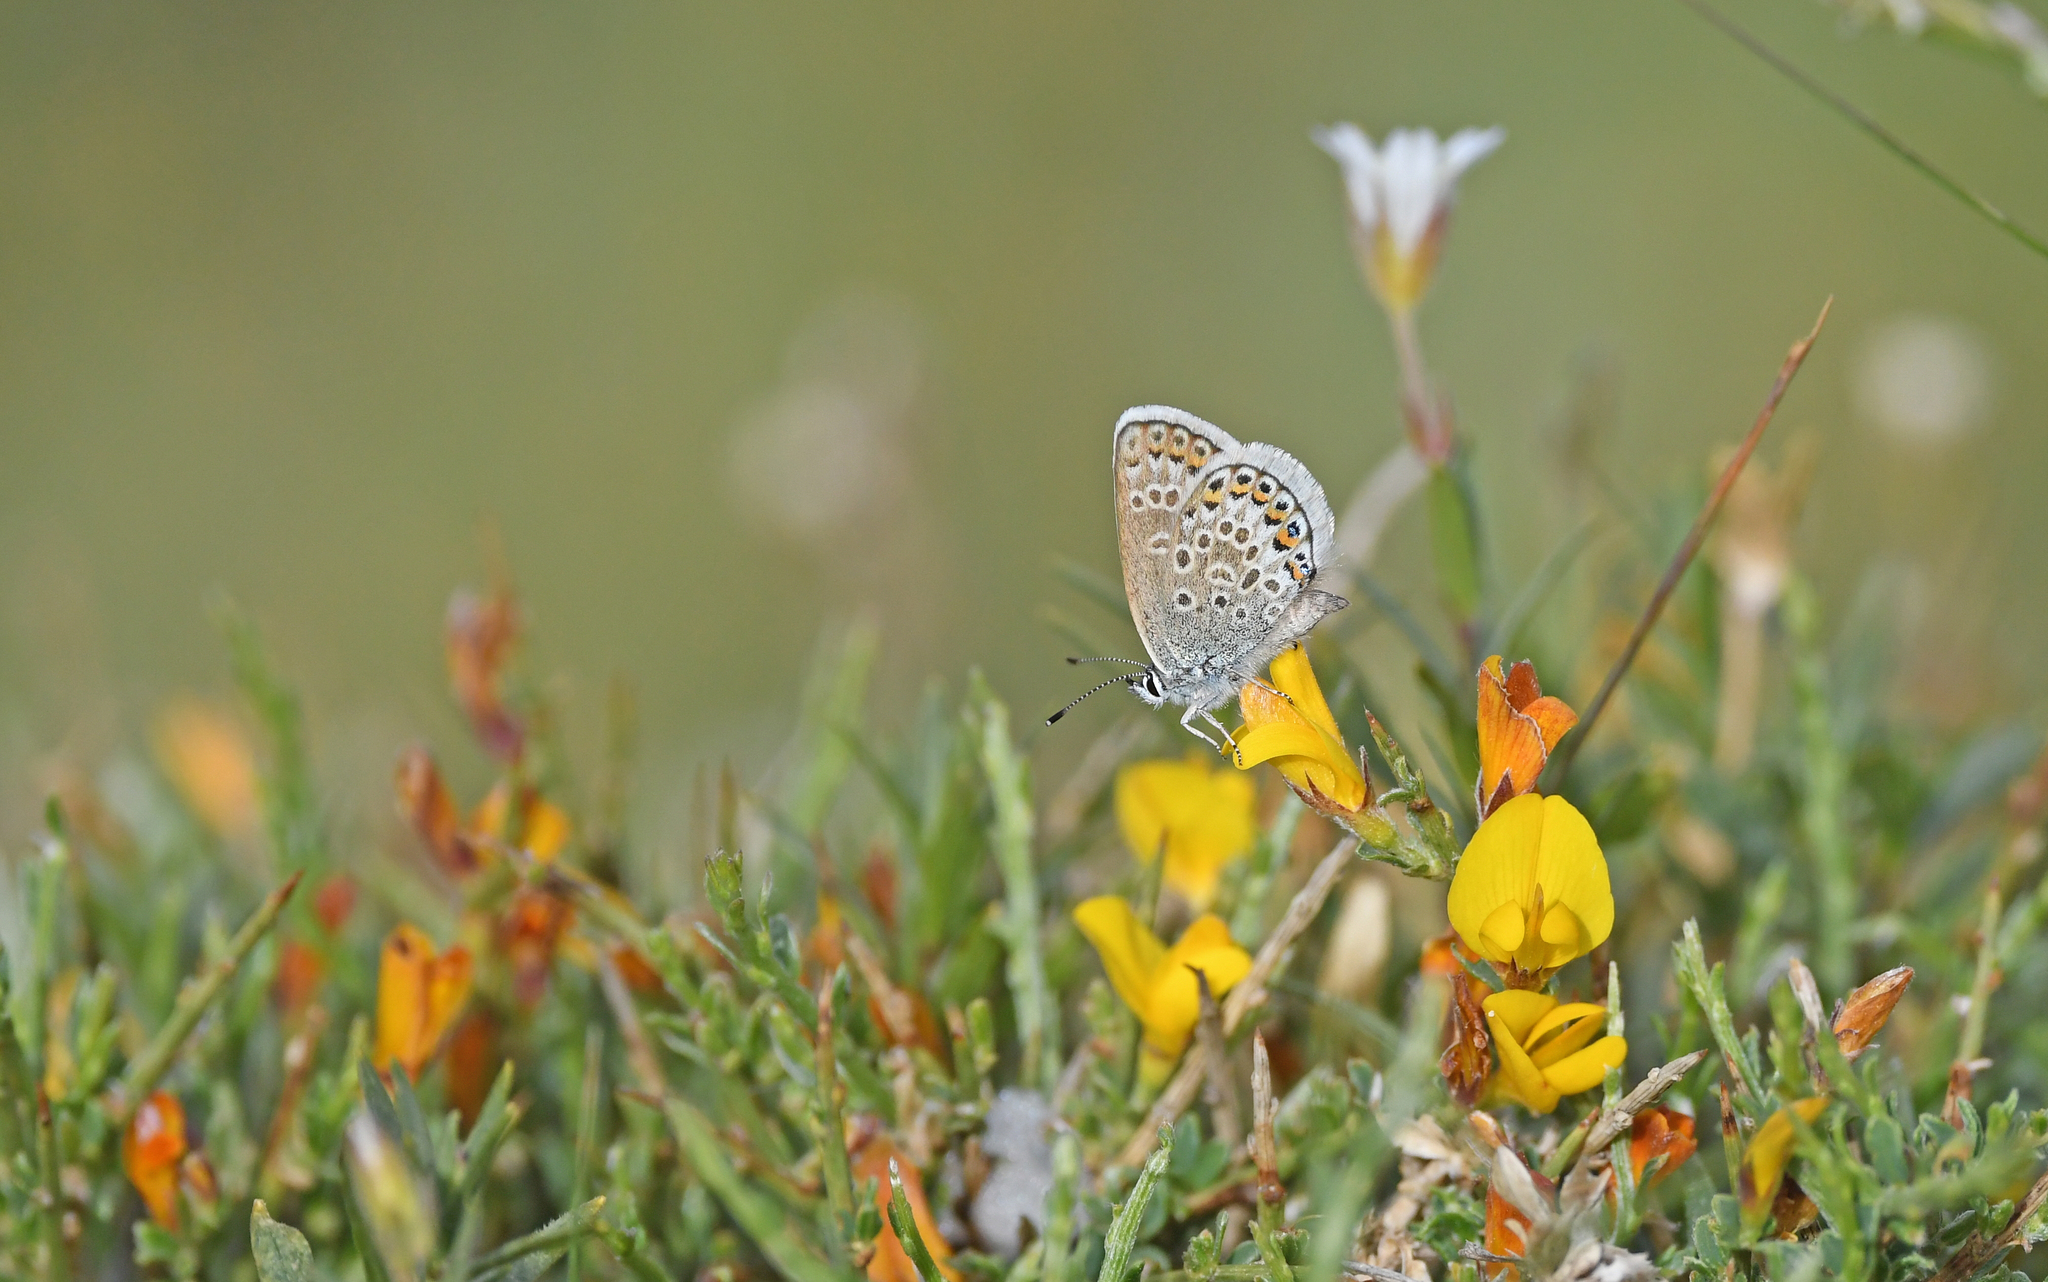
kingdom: Animalia
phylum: Arthropoda
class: Insecta
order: Lepidoptera
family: Lycaenidae
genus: Plebejus
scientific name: Plebejus argus
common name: Silver-studded blue
